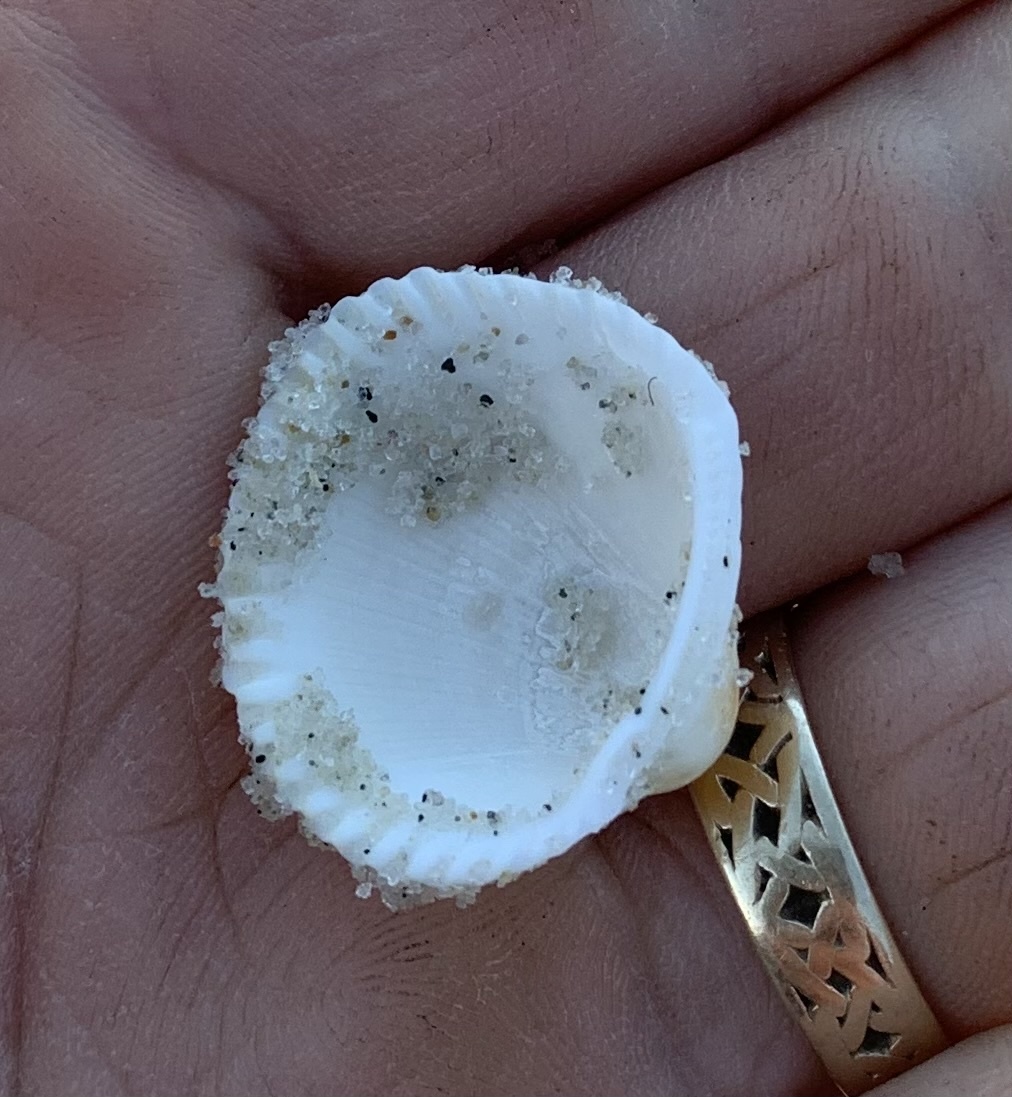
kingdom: Animalia
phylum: Mollusca
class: Bivalvia
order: Arcida
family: Arcidae
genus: Lunarca
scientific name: Lunarca ovalis
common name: Blood ark
